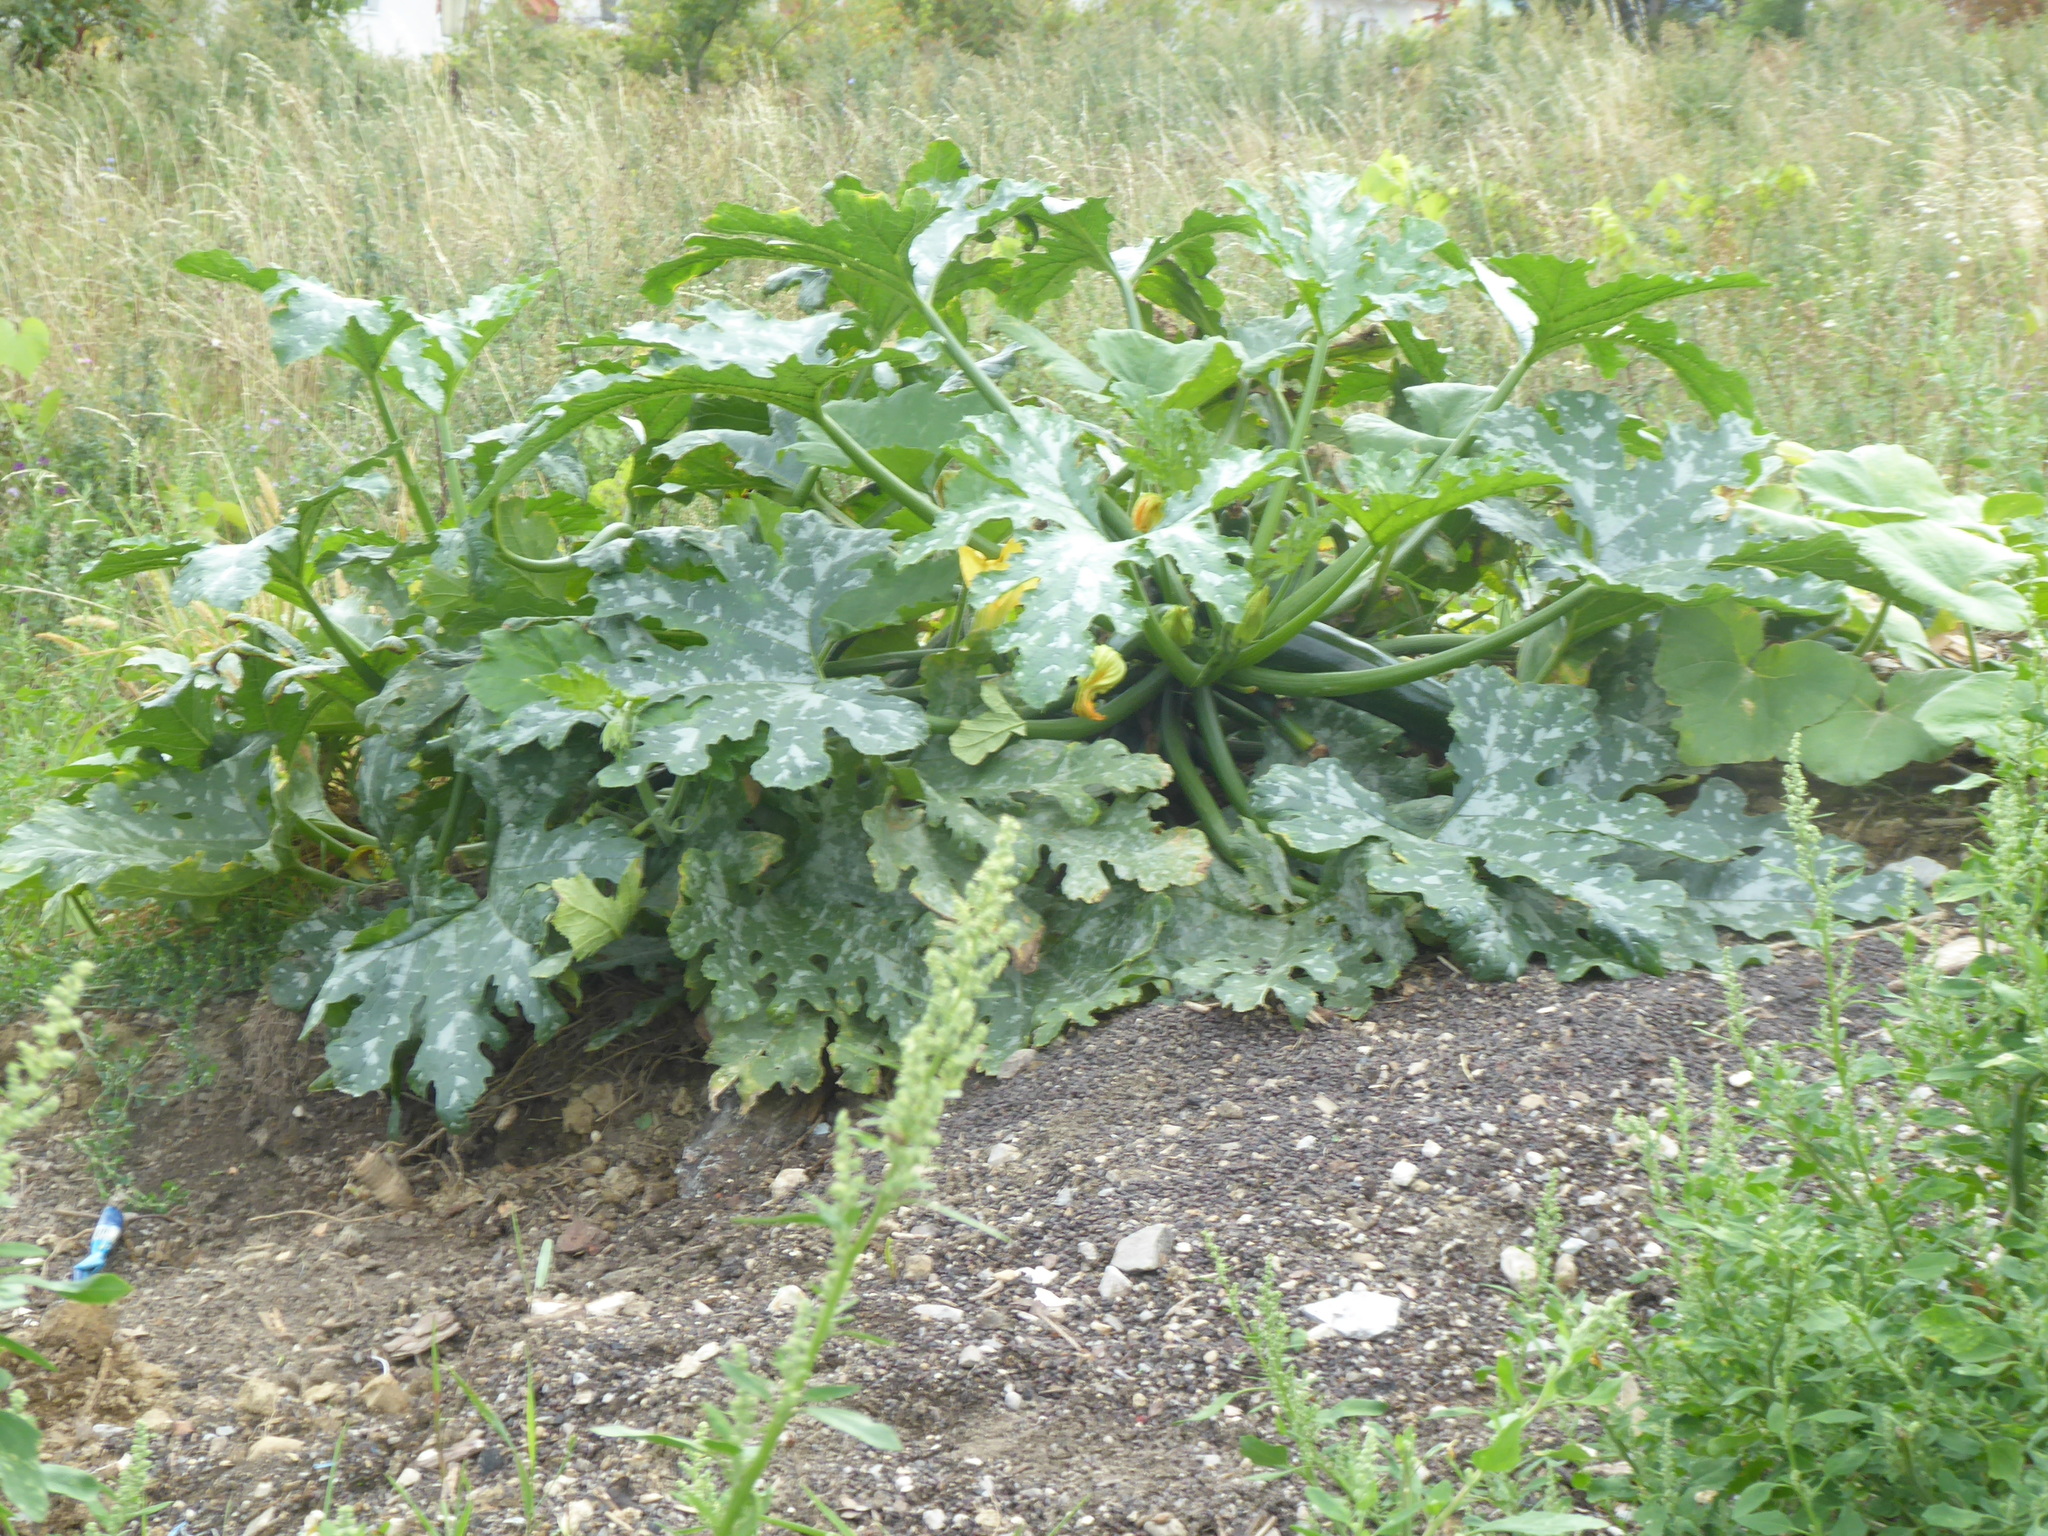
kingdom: Plantae
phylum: Tracheophyta
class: Magnoliopsida
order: Cucurbitales
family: Cucurbitaceae
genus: Cucurbita
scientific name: Cucurbita pepo
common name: Marrow
